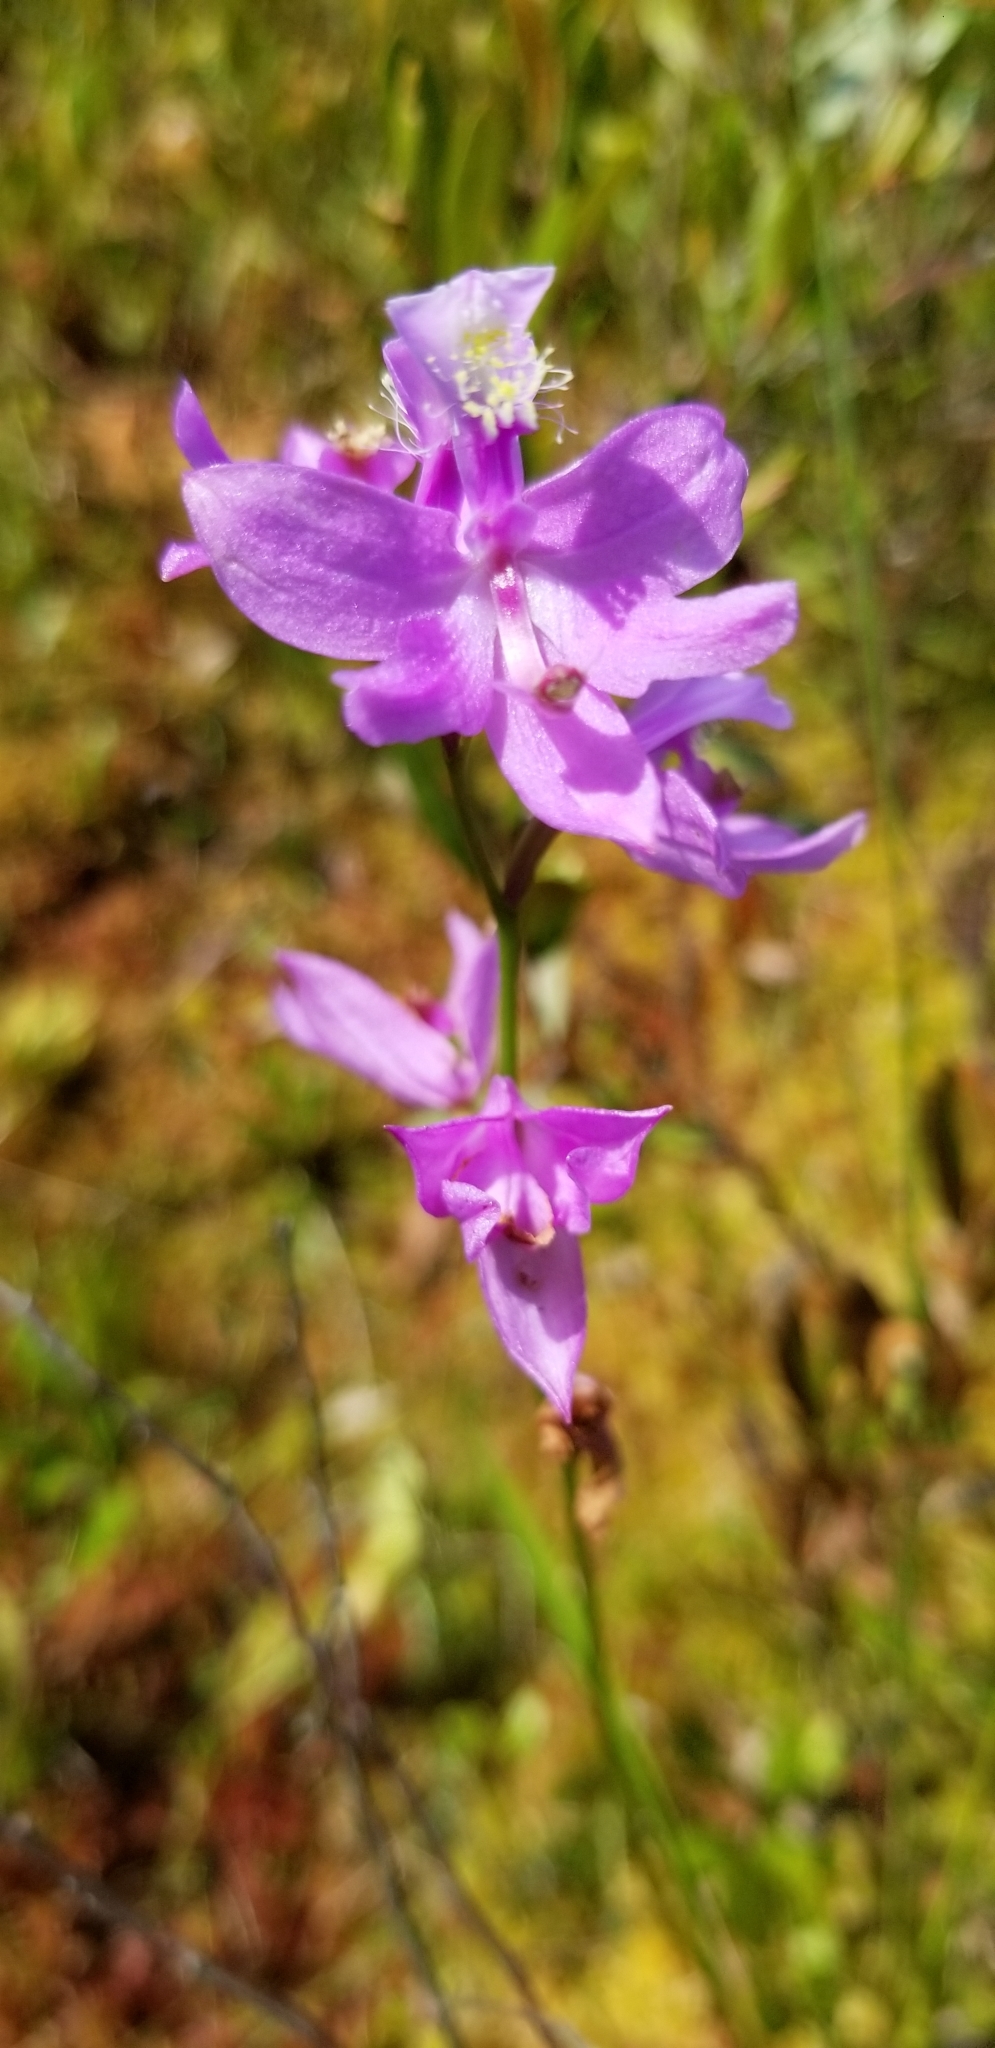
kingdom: Plantae
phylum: Tracheophyta
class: Liliopsida
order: Asparagales
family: Orchidaceae
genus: Calopogon
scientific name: Calopogon tuberosus
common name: Grass-pink
